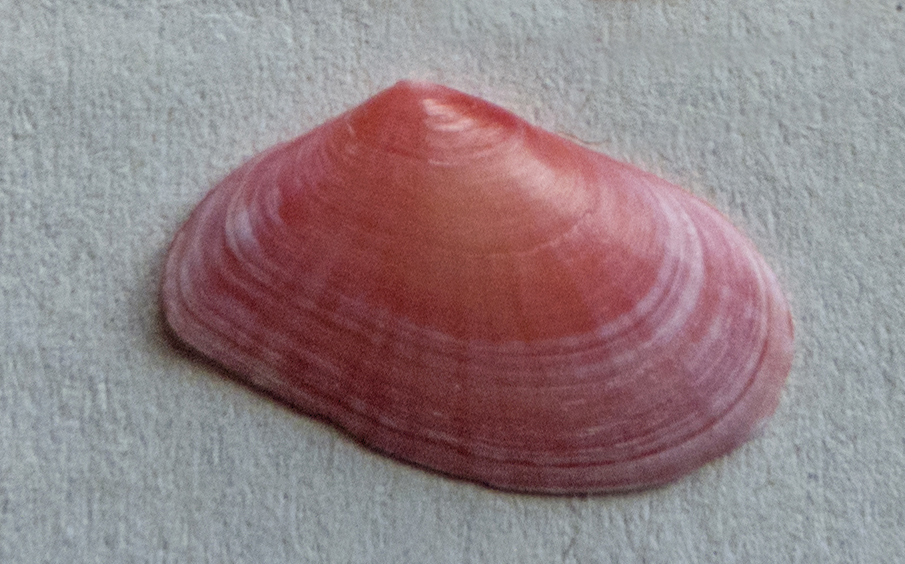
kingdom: Animalia
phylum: Mollusca
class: Bivalvia
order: Cardiida
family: Tellinidae
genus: Moerella
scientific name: Moerella donacina
